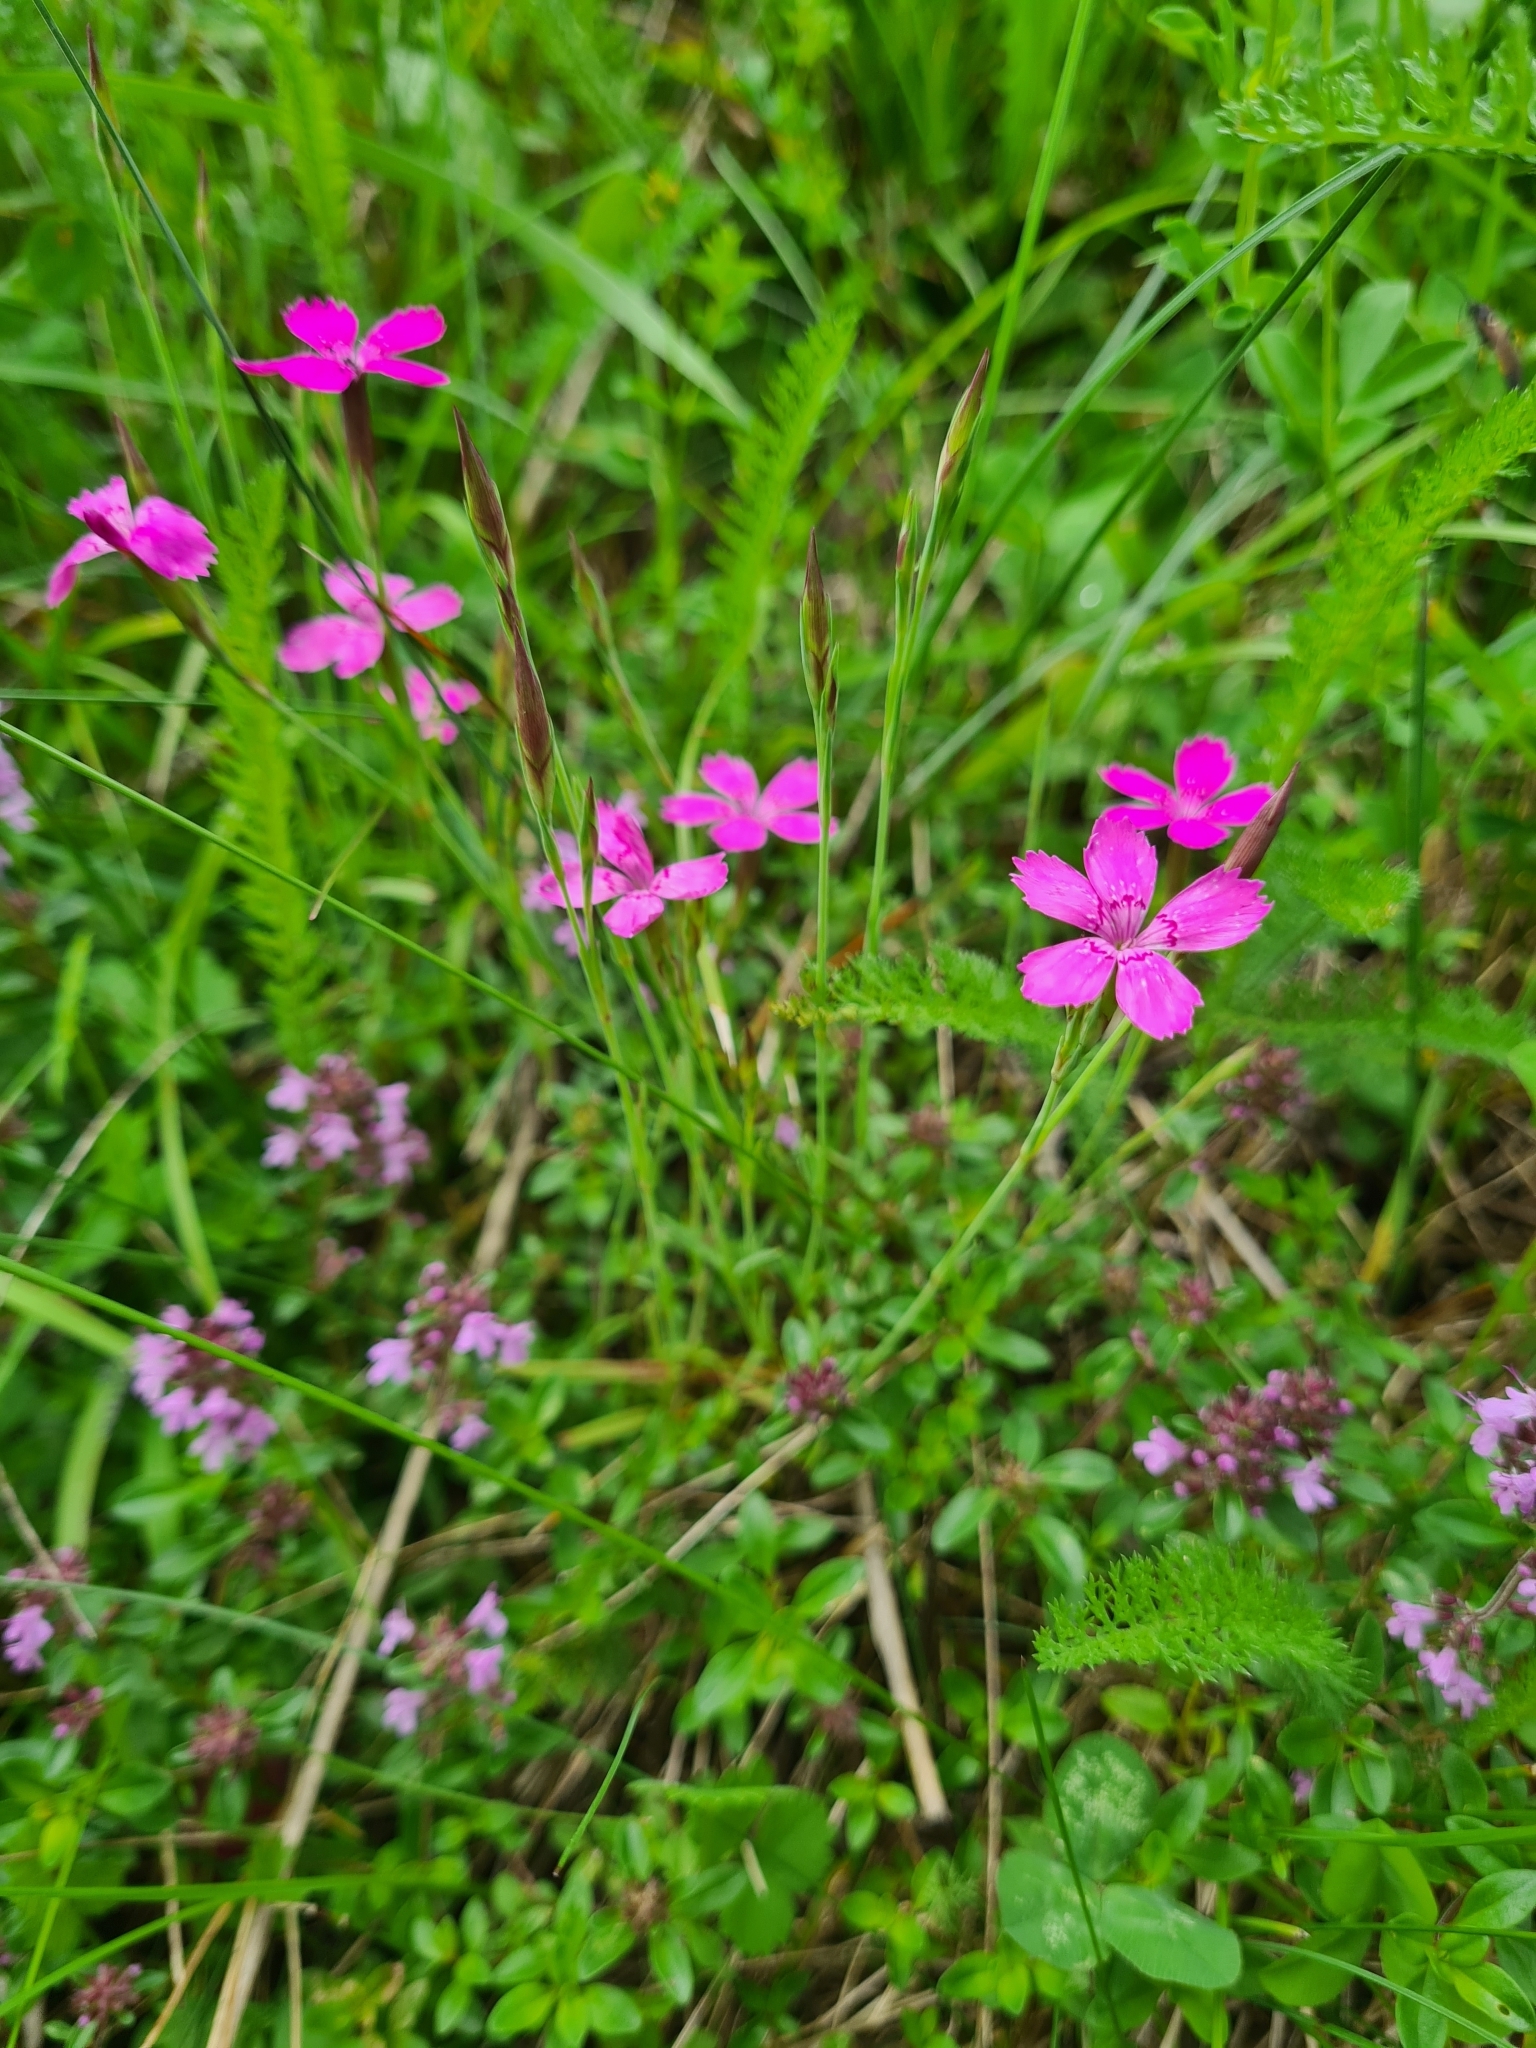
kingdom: Plantae
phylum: Tracheophyta
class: Magnoliopsida
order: Caryophyllales
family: Caryophyllaceae
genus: Dianthus
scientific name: Dianthus deltoides
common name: Maiden pink
